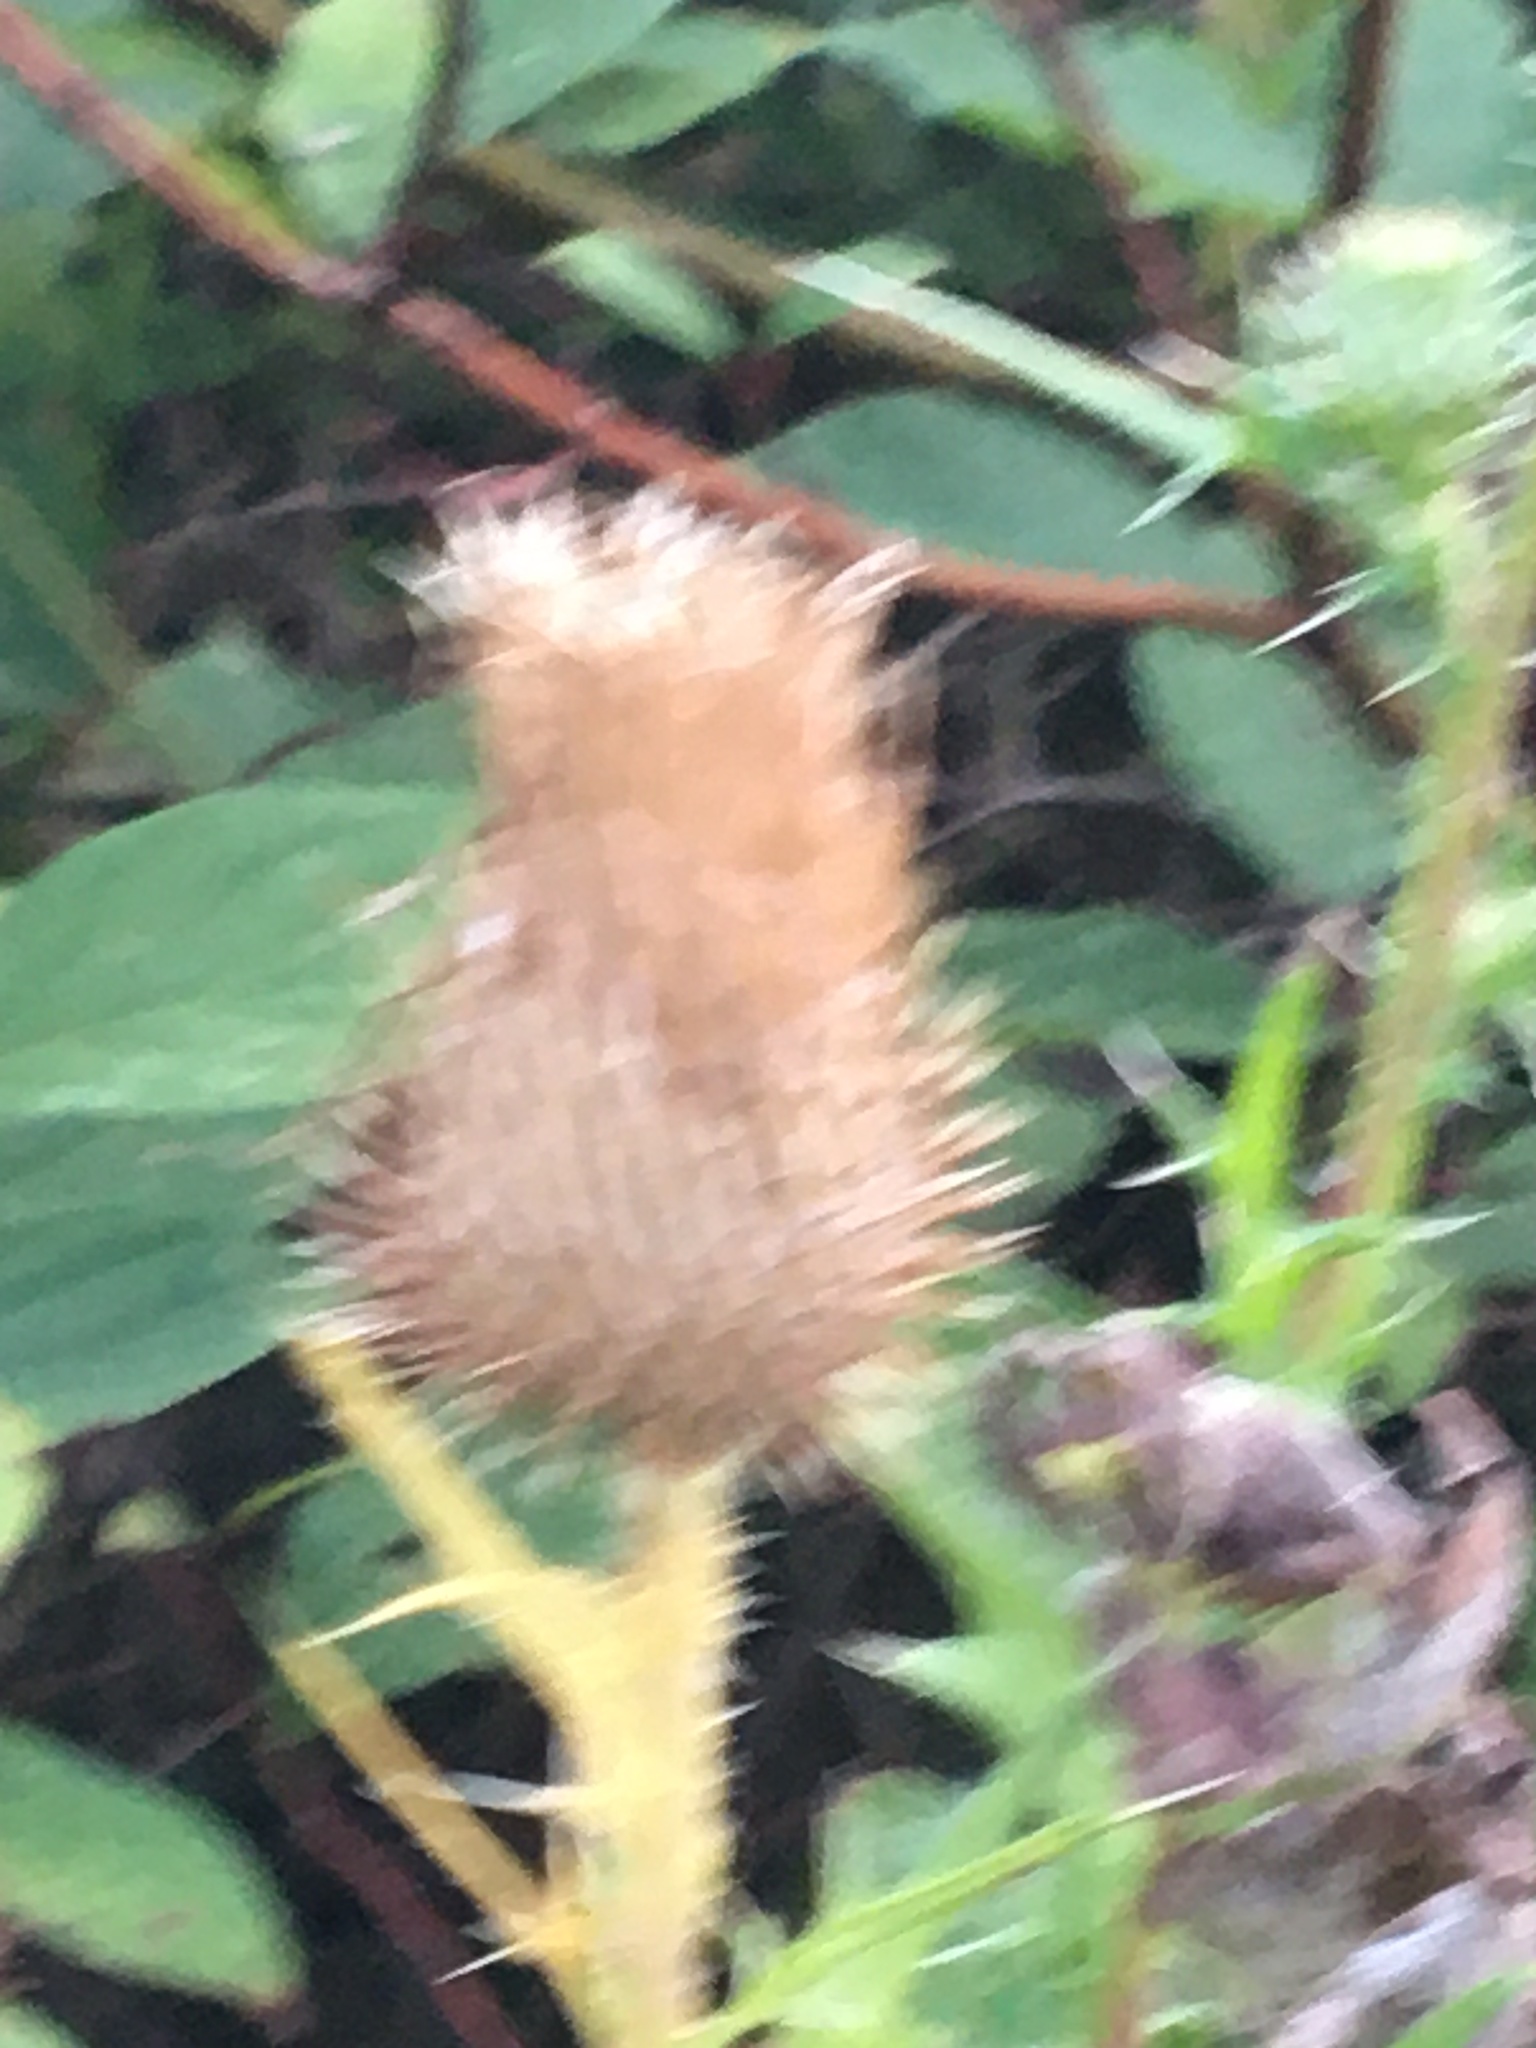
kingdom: Plantae
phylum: Tracheophyta
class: Magnoliopsida
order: Asterales
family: Asteraceae
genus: Cirsium
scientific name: Cirsium vulgare
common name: Bull thistle
